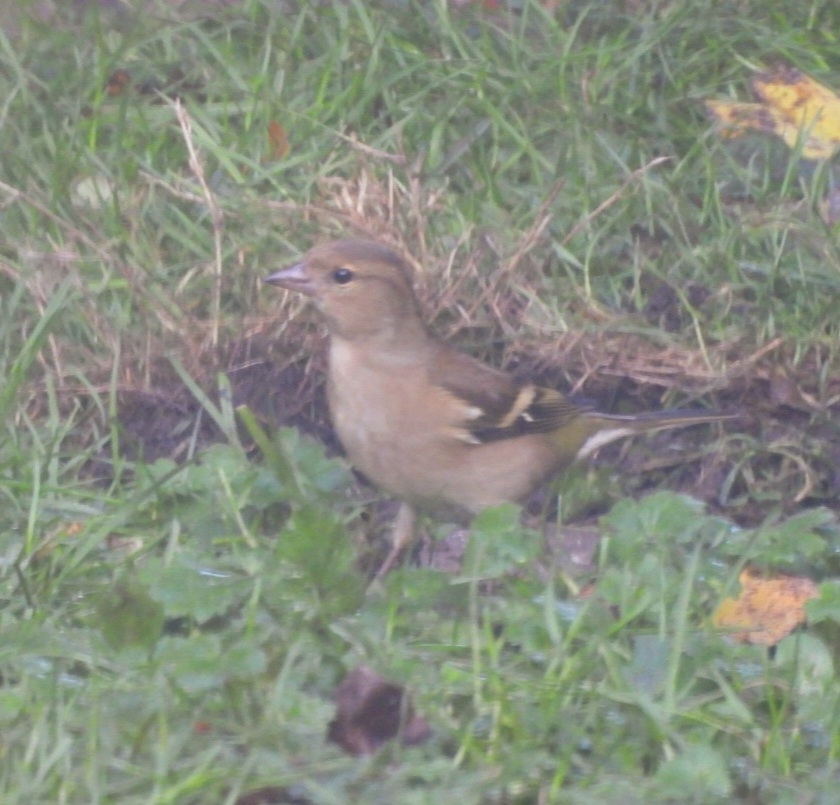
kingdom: Animalia
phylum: Chordata
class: Aves
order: Passeriformes
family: Fringillidae
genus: Fringilla
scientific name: Fringilla coelebs
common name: Common chaffinch
